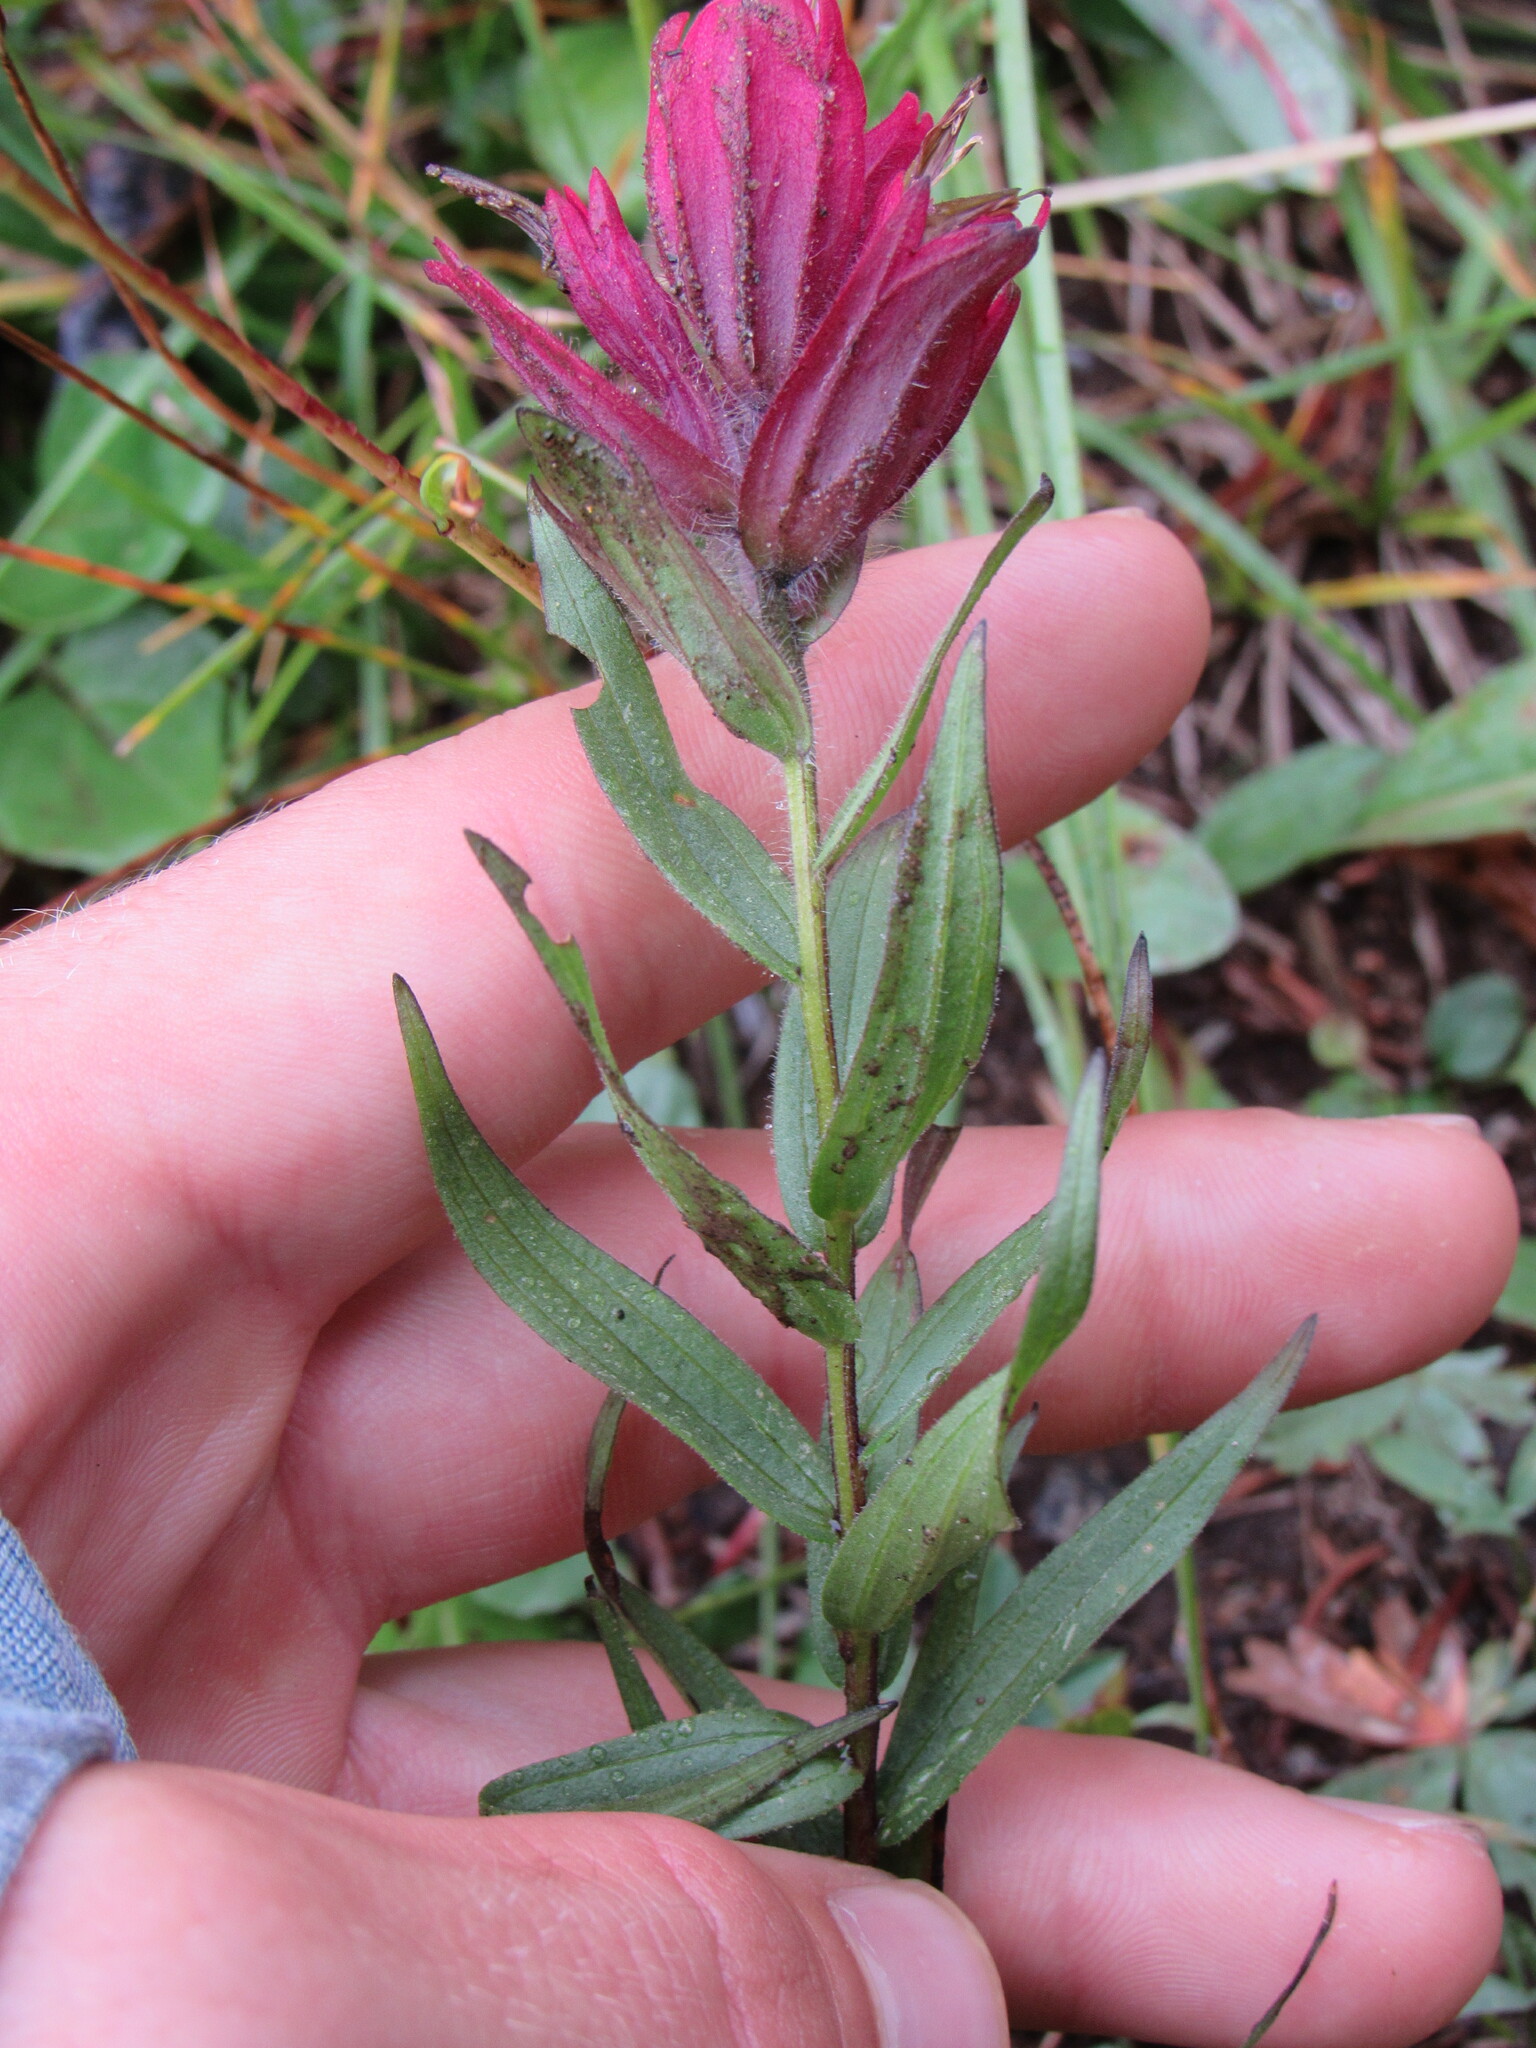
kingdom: Plantae
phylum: Tracheophyta
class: Magnoliopsida
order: Lamiales
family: Orobanchaceae
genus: Castilleja
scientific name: Castilleja rhexifolia
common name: Rocky mountain paintbrush
